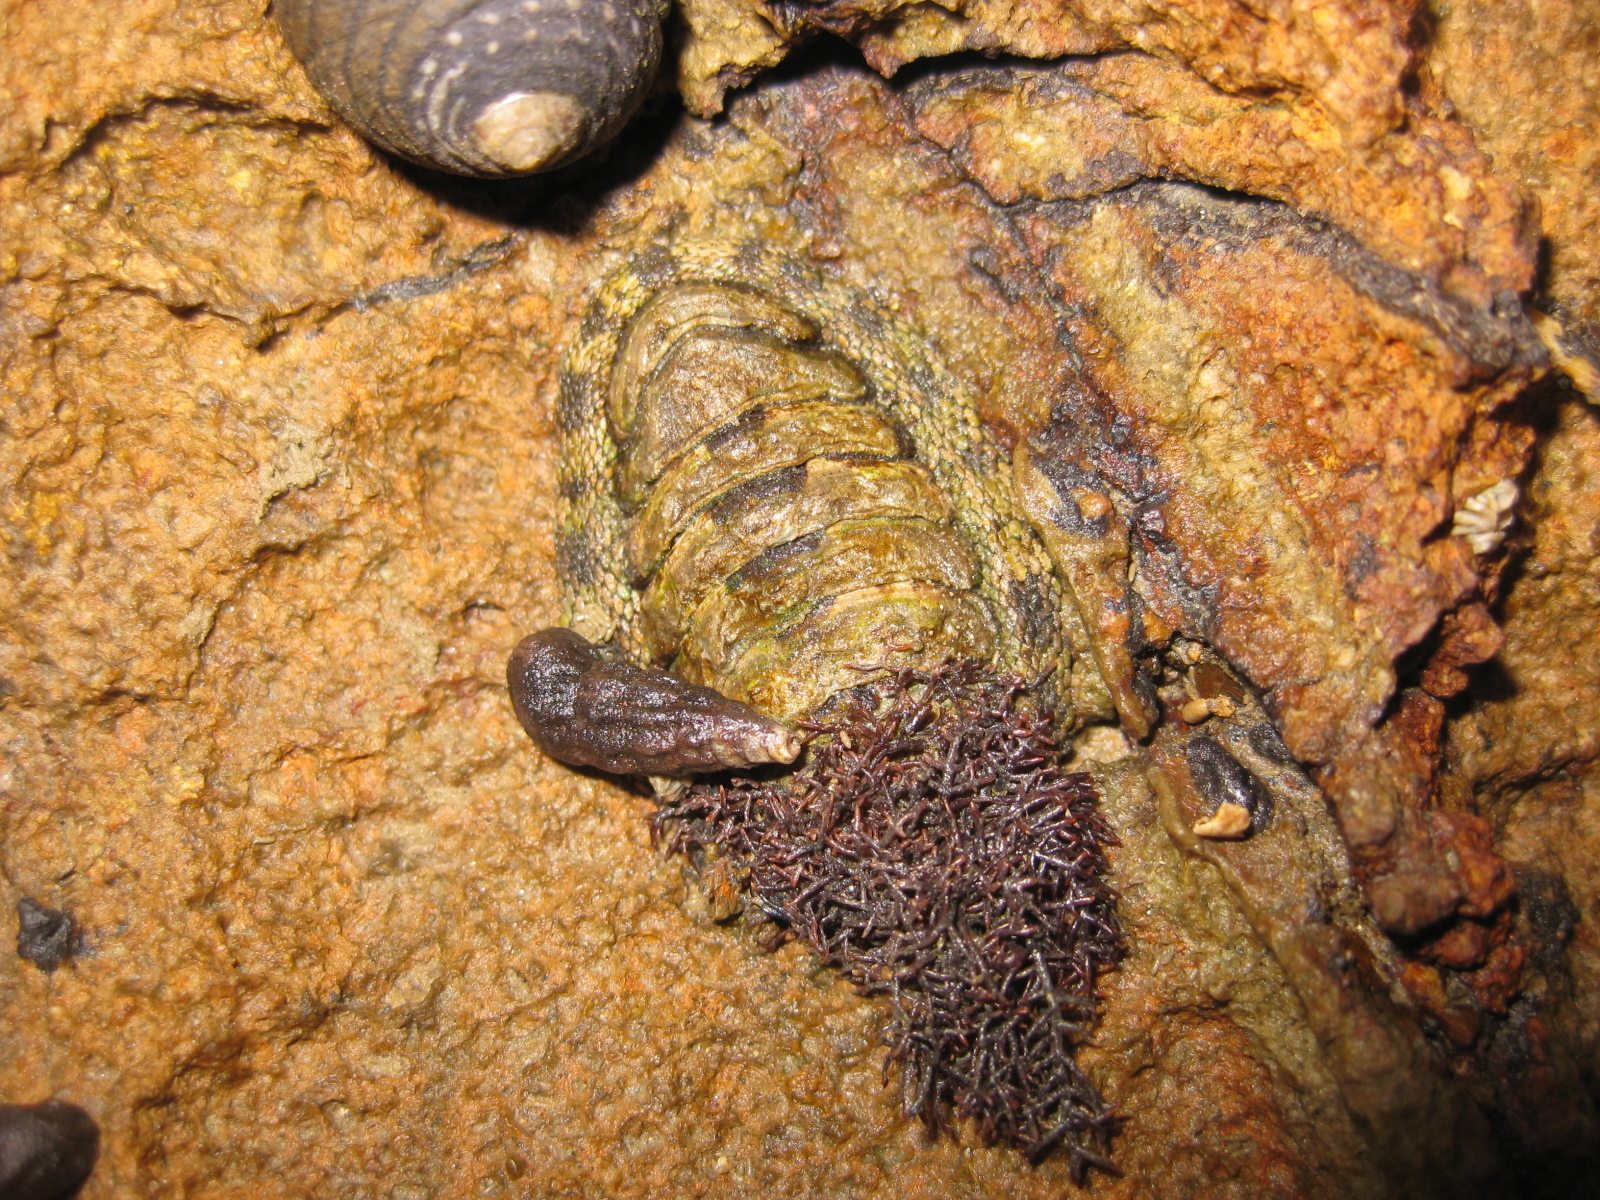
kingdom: Animalia
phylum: Mollusca
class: Polyplacophora
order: Chitonida
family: Chitonidae
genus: Sypharochiton
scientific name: Sypharochiton pelliserpentis
